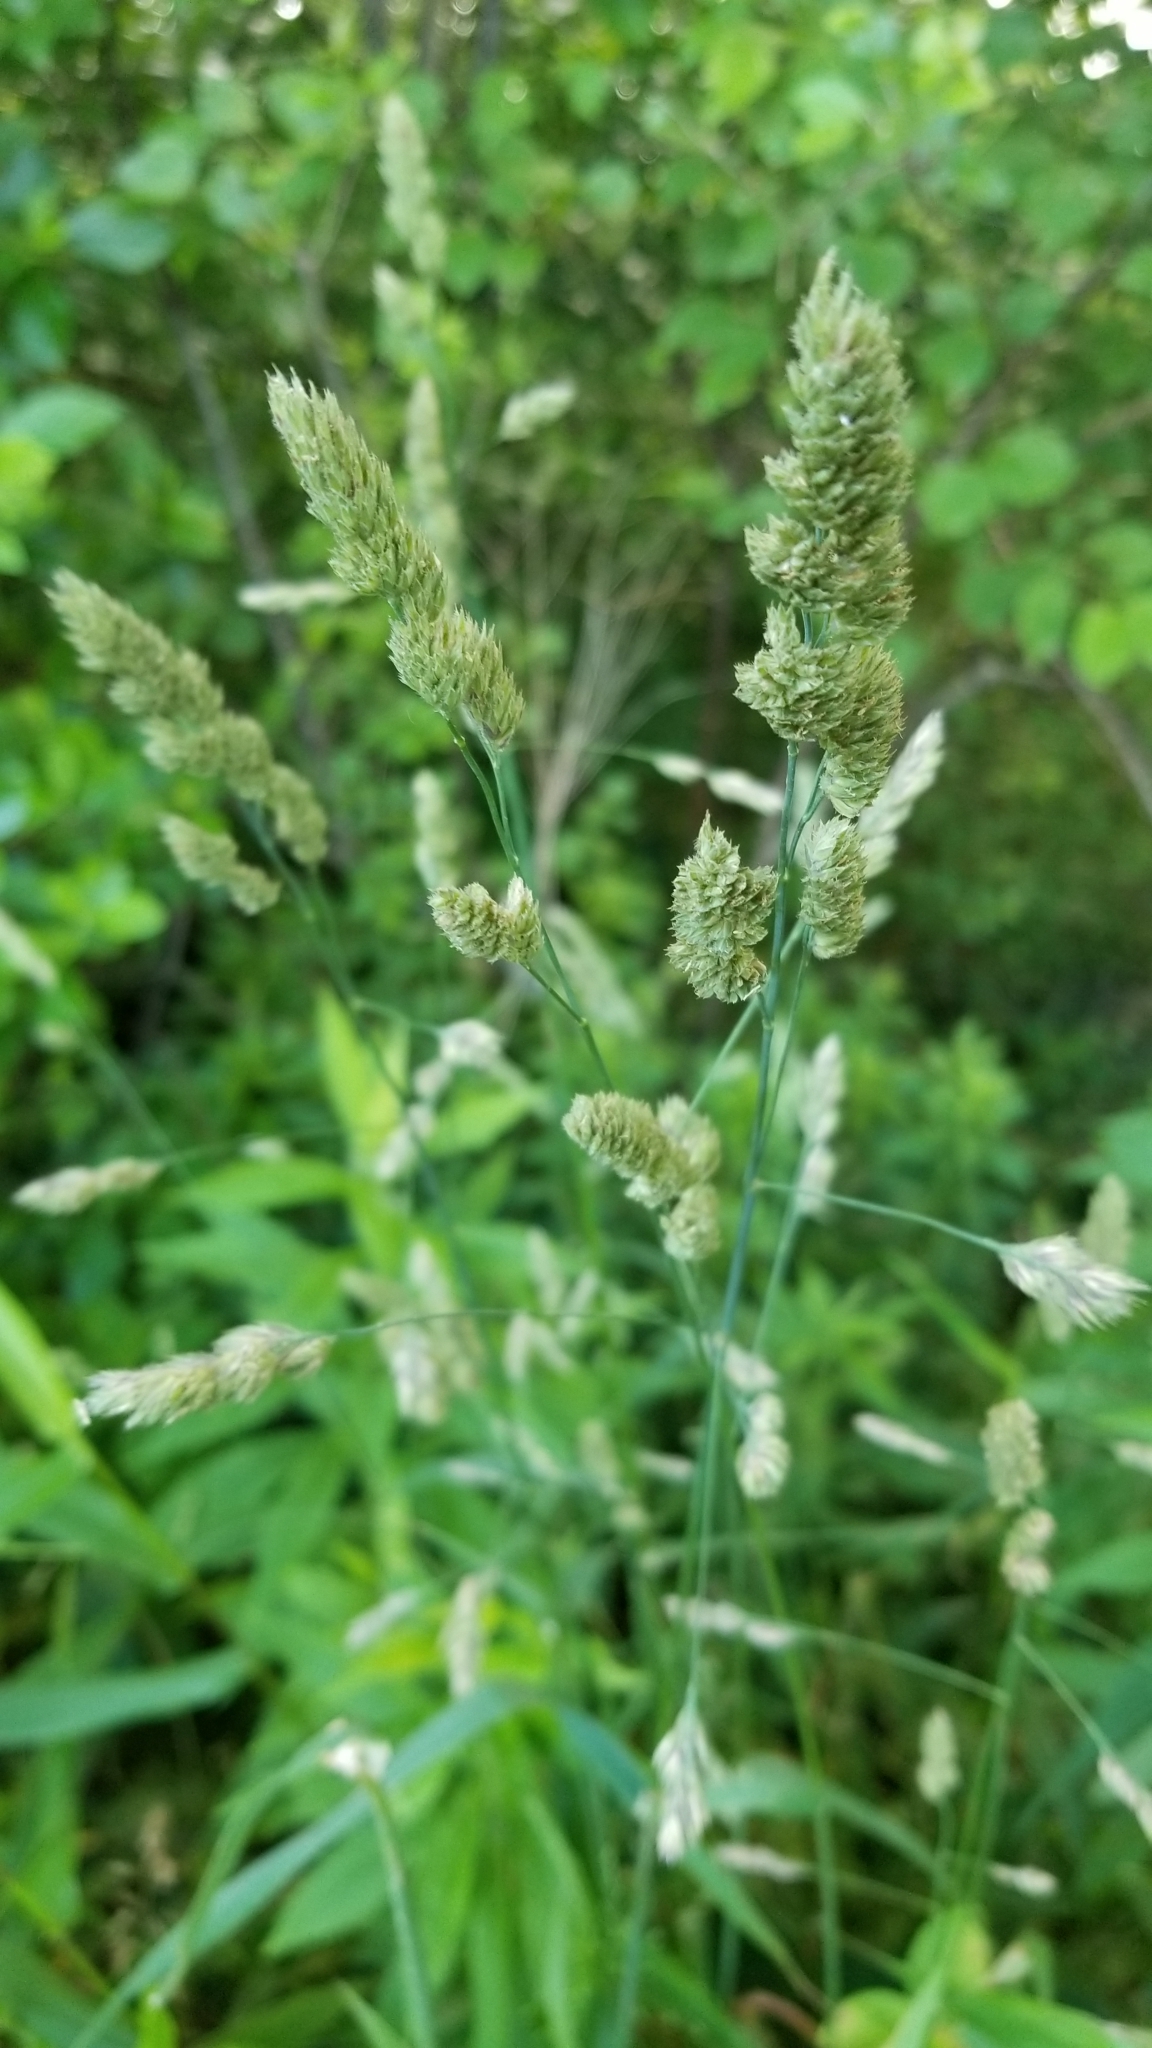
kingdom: Plantae
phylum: Tracheophyta
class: Liliopsida
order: Poales
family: Poaceae
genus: Dactylis
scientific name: Dactylis glomerata
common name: Orchardgrass
